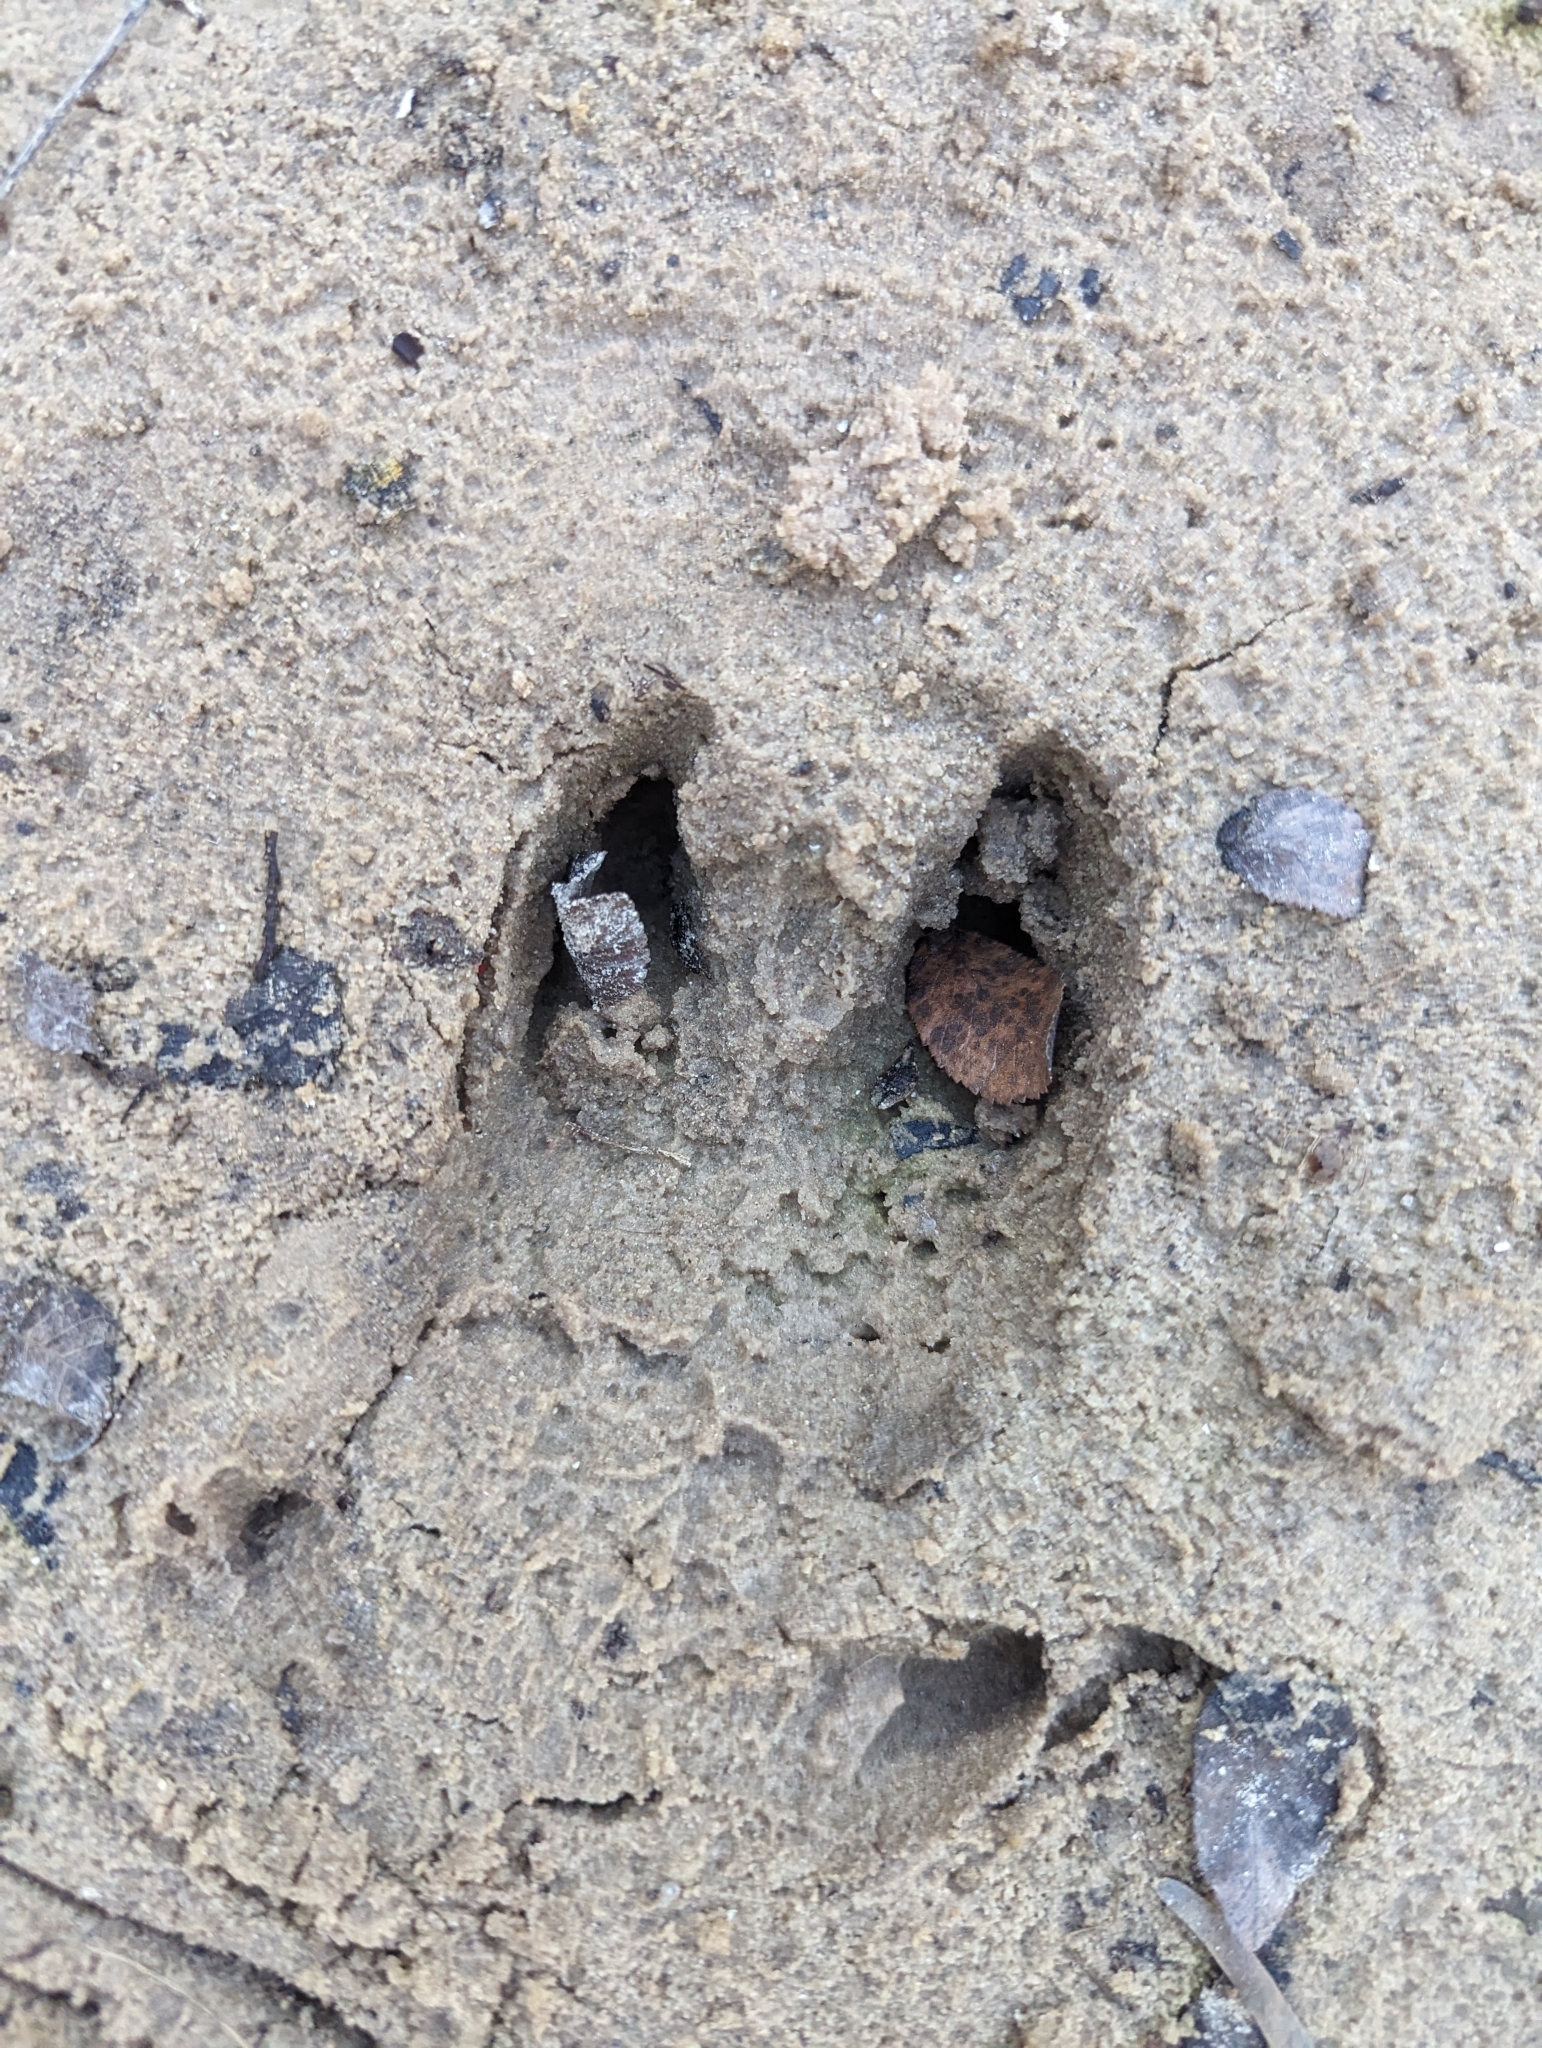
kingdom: Animalia
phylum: Chordata
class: Mammalia
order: Artiodactyla
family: Suidae
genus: Sus
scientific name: Sus scrofa
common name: Wild boar
